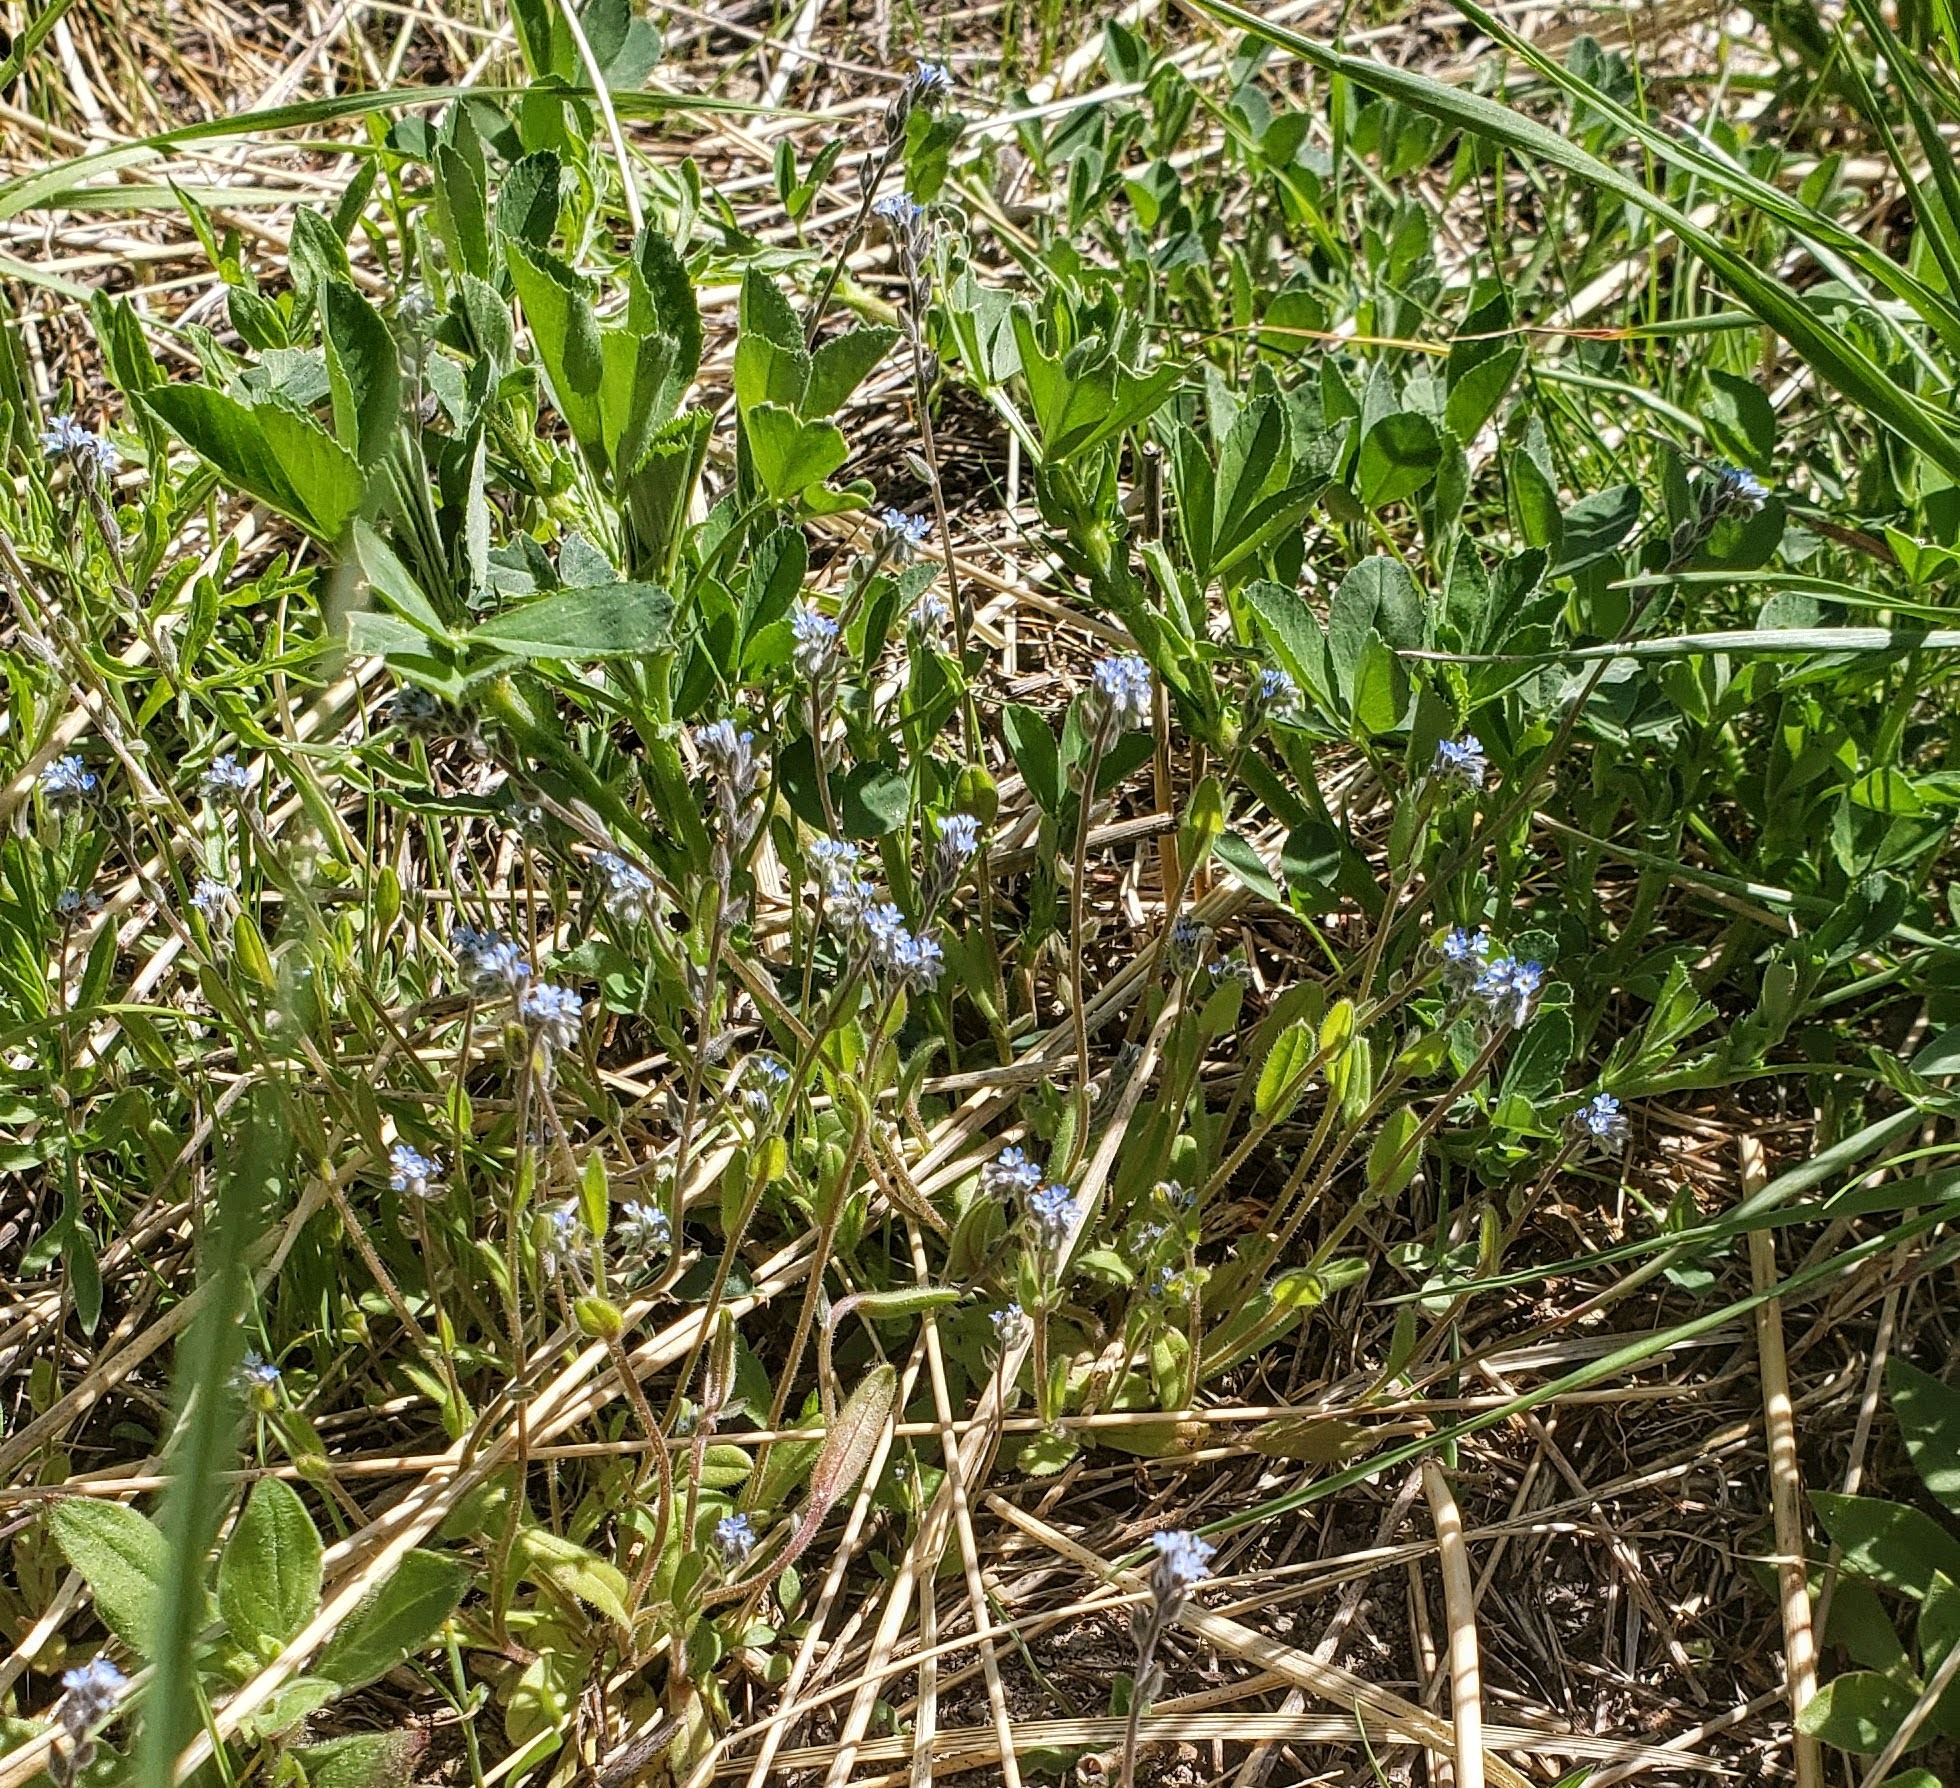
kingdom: Plantae
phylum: Tracheophyta
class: Magnoliopsida
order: Boraginales
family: Boraginaceae
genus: Myosotis
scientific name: Myosotis stricta
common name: Strict forget-me-not
